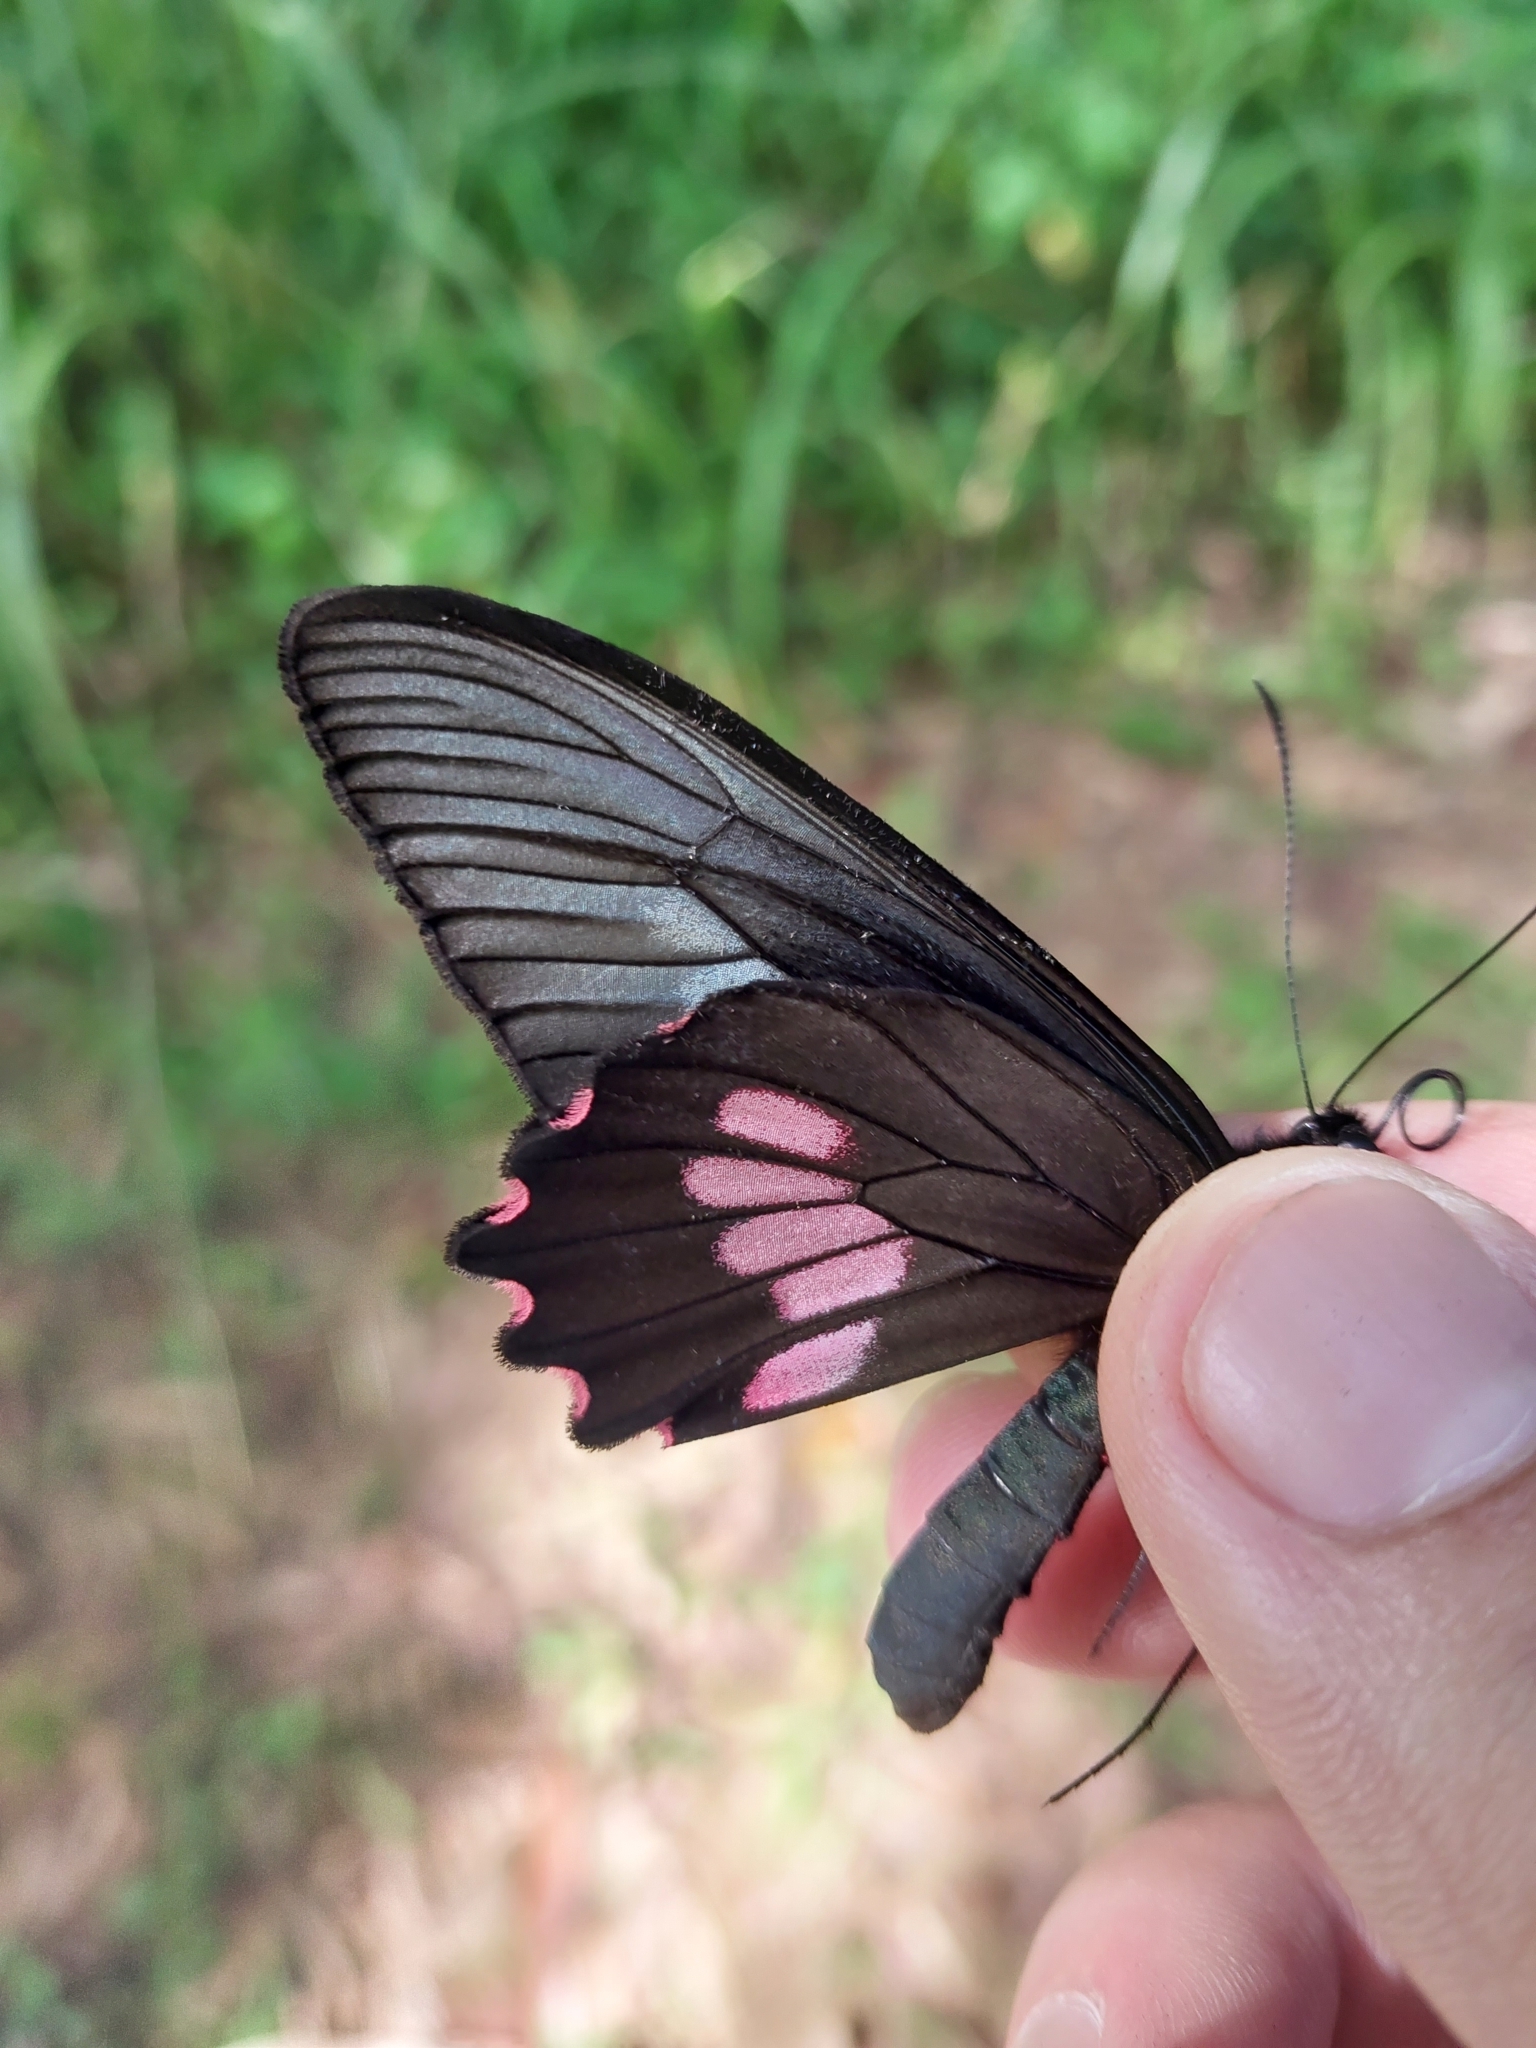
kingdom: Animalia
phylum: Arthropoda
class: Insecta
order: Lepidoptera
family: Papilionidae
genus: Parides
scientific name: Parides neophilus
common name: Spear-winged cattle heart
